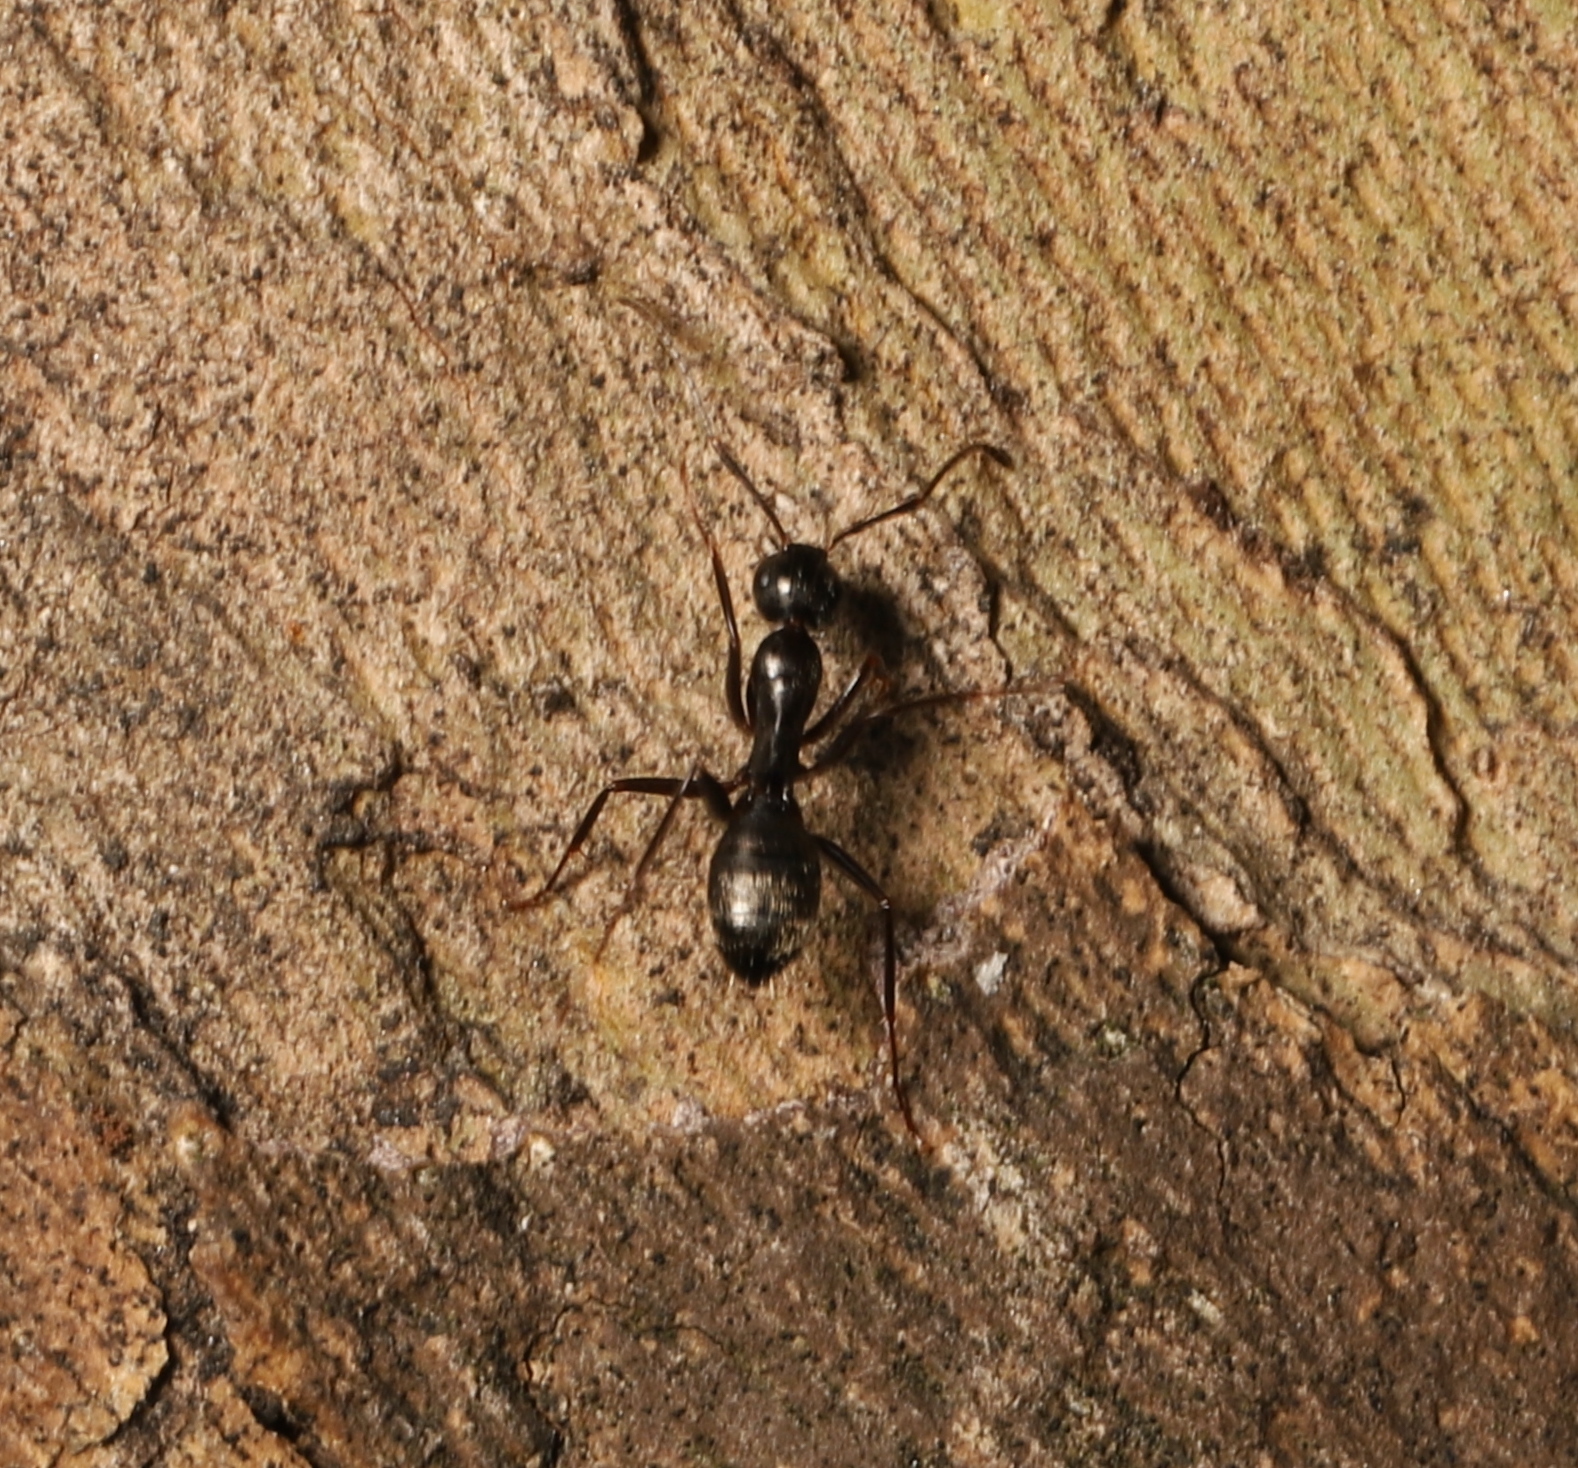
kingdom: Animalia
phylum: Arthropoda
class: Insecta
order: Hymenoptera
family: Formicidae
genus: Camponotus
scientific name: Camponotus pennsylvanicus
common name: Black carpenter ant
